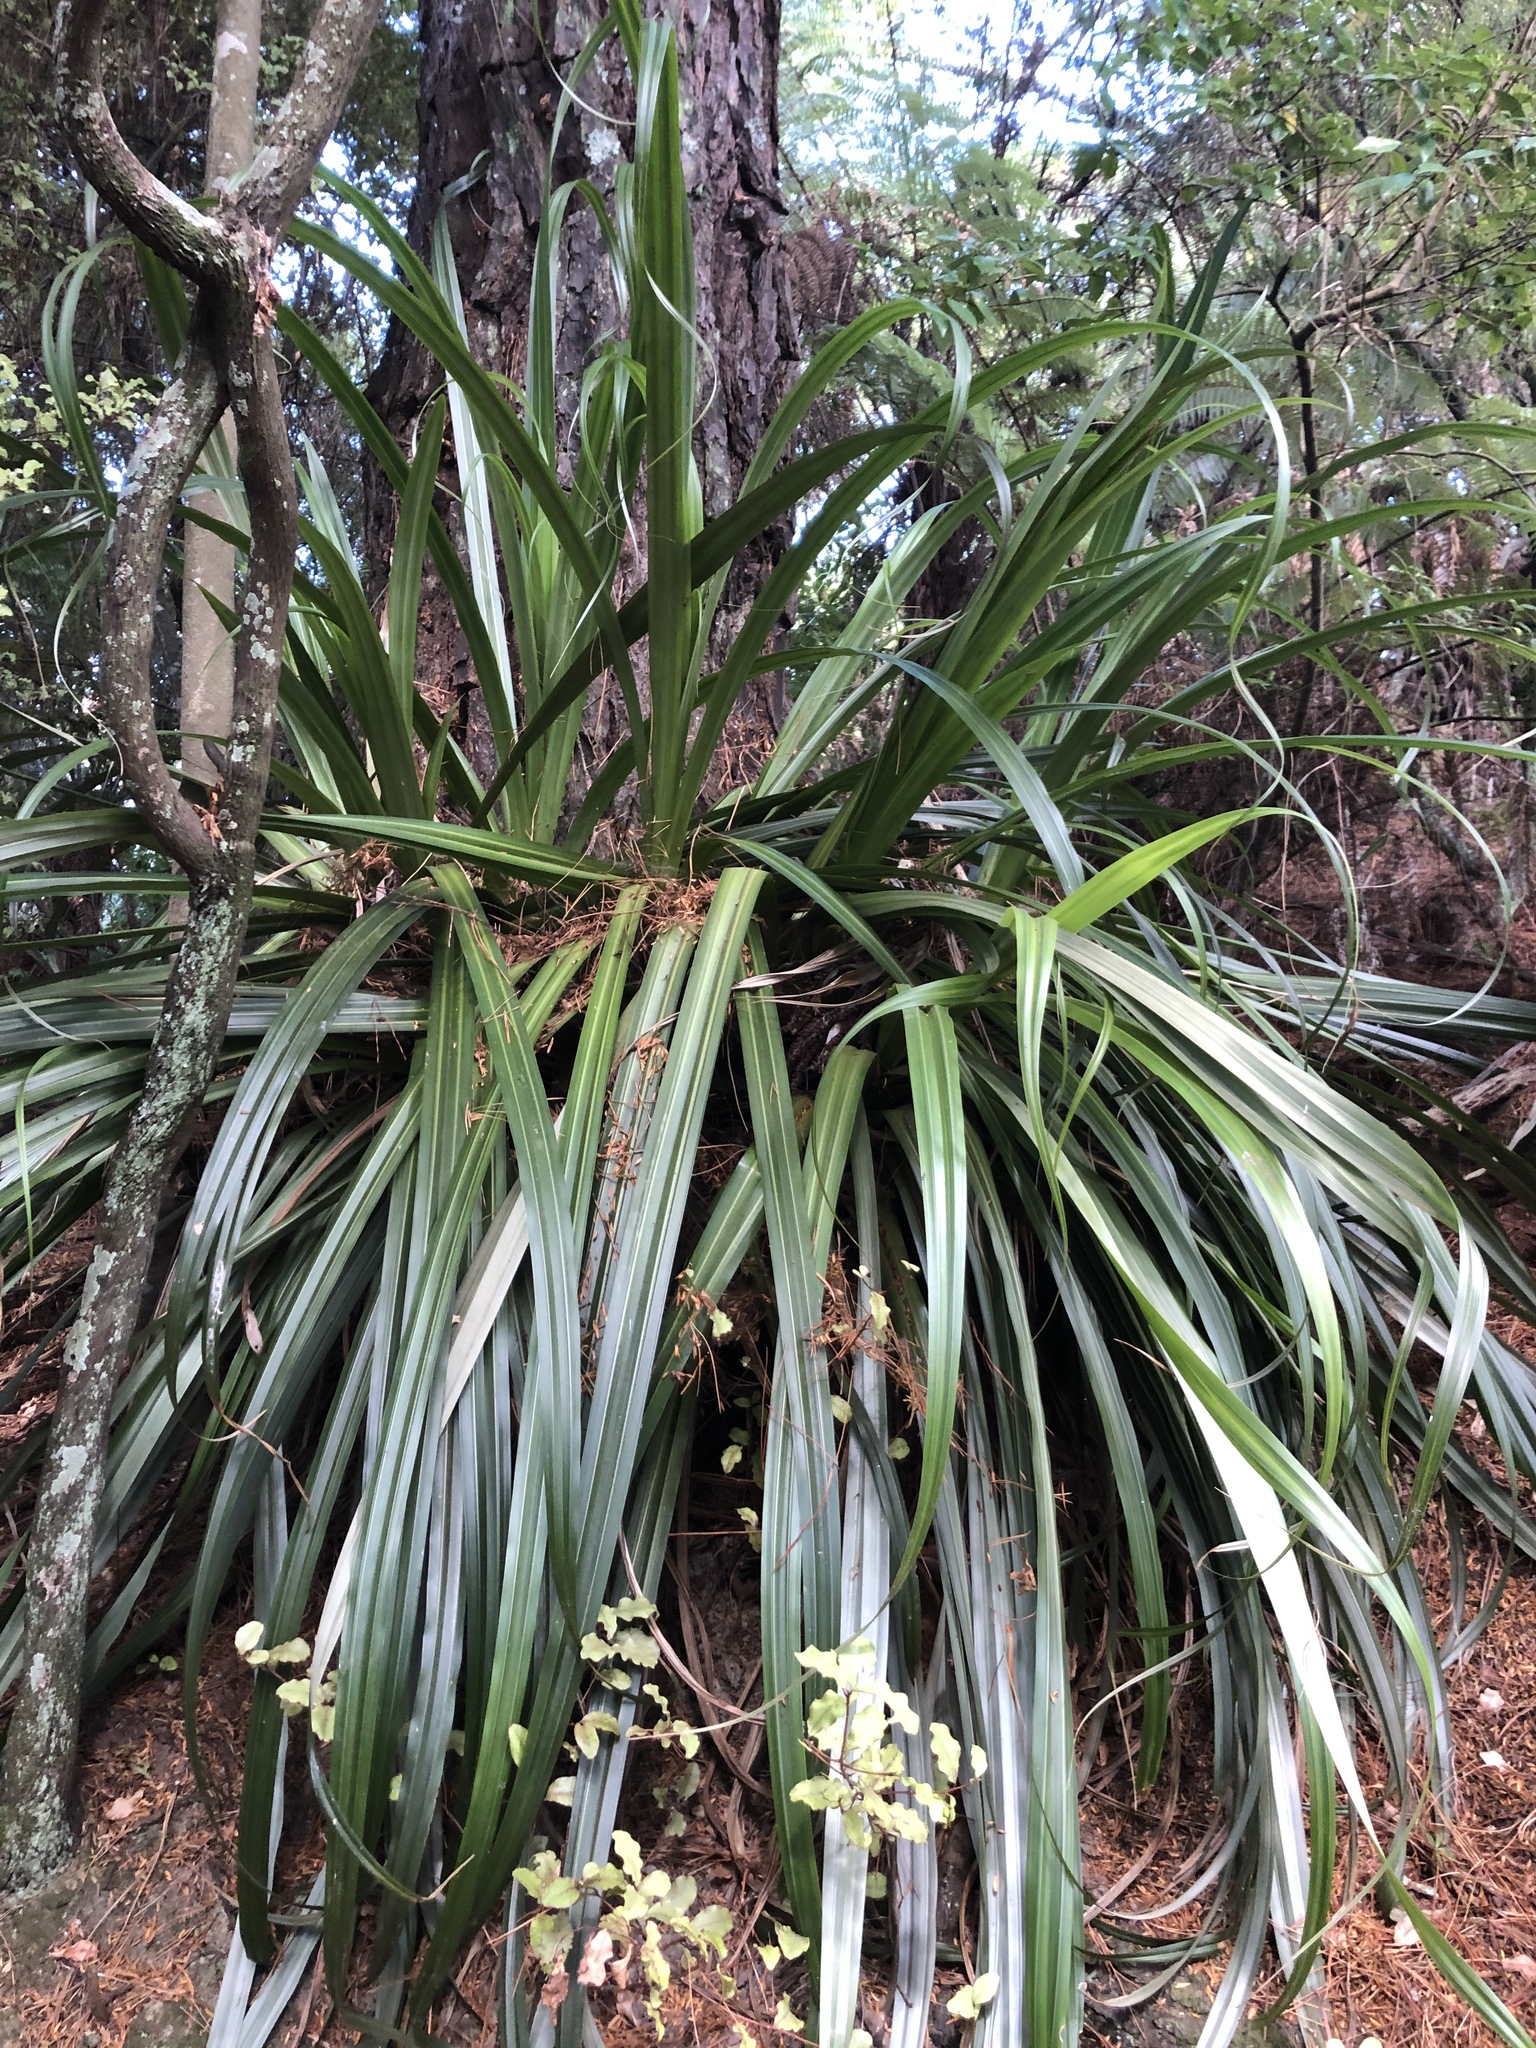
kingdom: Plantae
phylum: Tracheophyta
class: Liliopsida
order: Asparagales
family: Asteliaceae
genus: Astelia
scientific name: Astelia hastata
